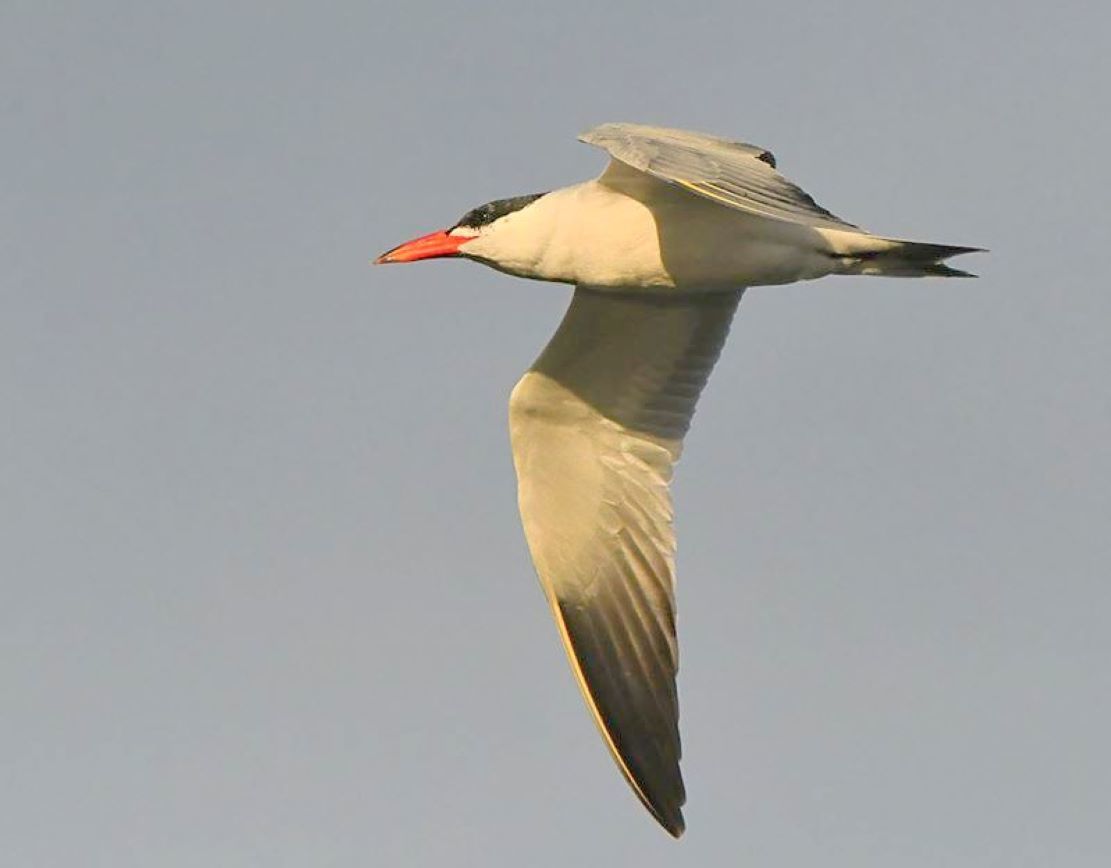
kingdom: Animalia
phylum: Chordata
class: Aves
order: Charadriiformes
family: Laridae
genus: Hydroprogne
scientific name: Hydroprogne caspia
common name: Caspian tern
